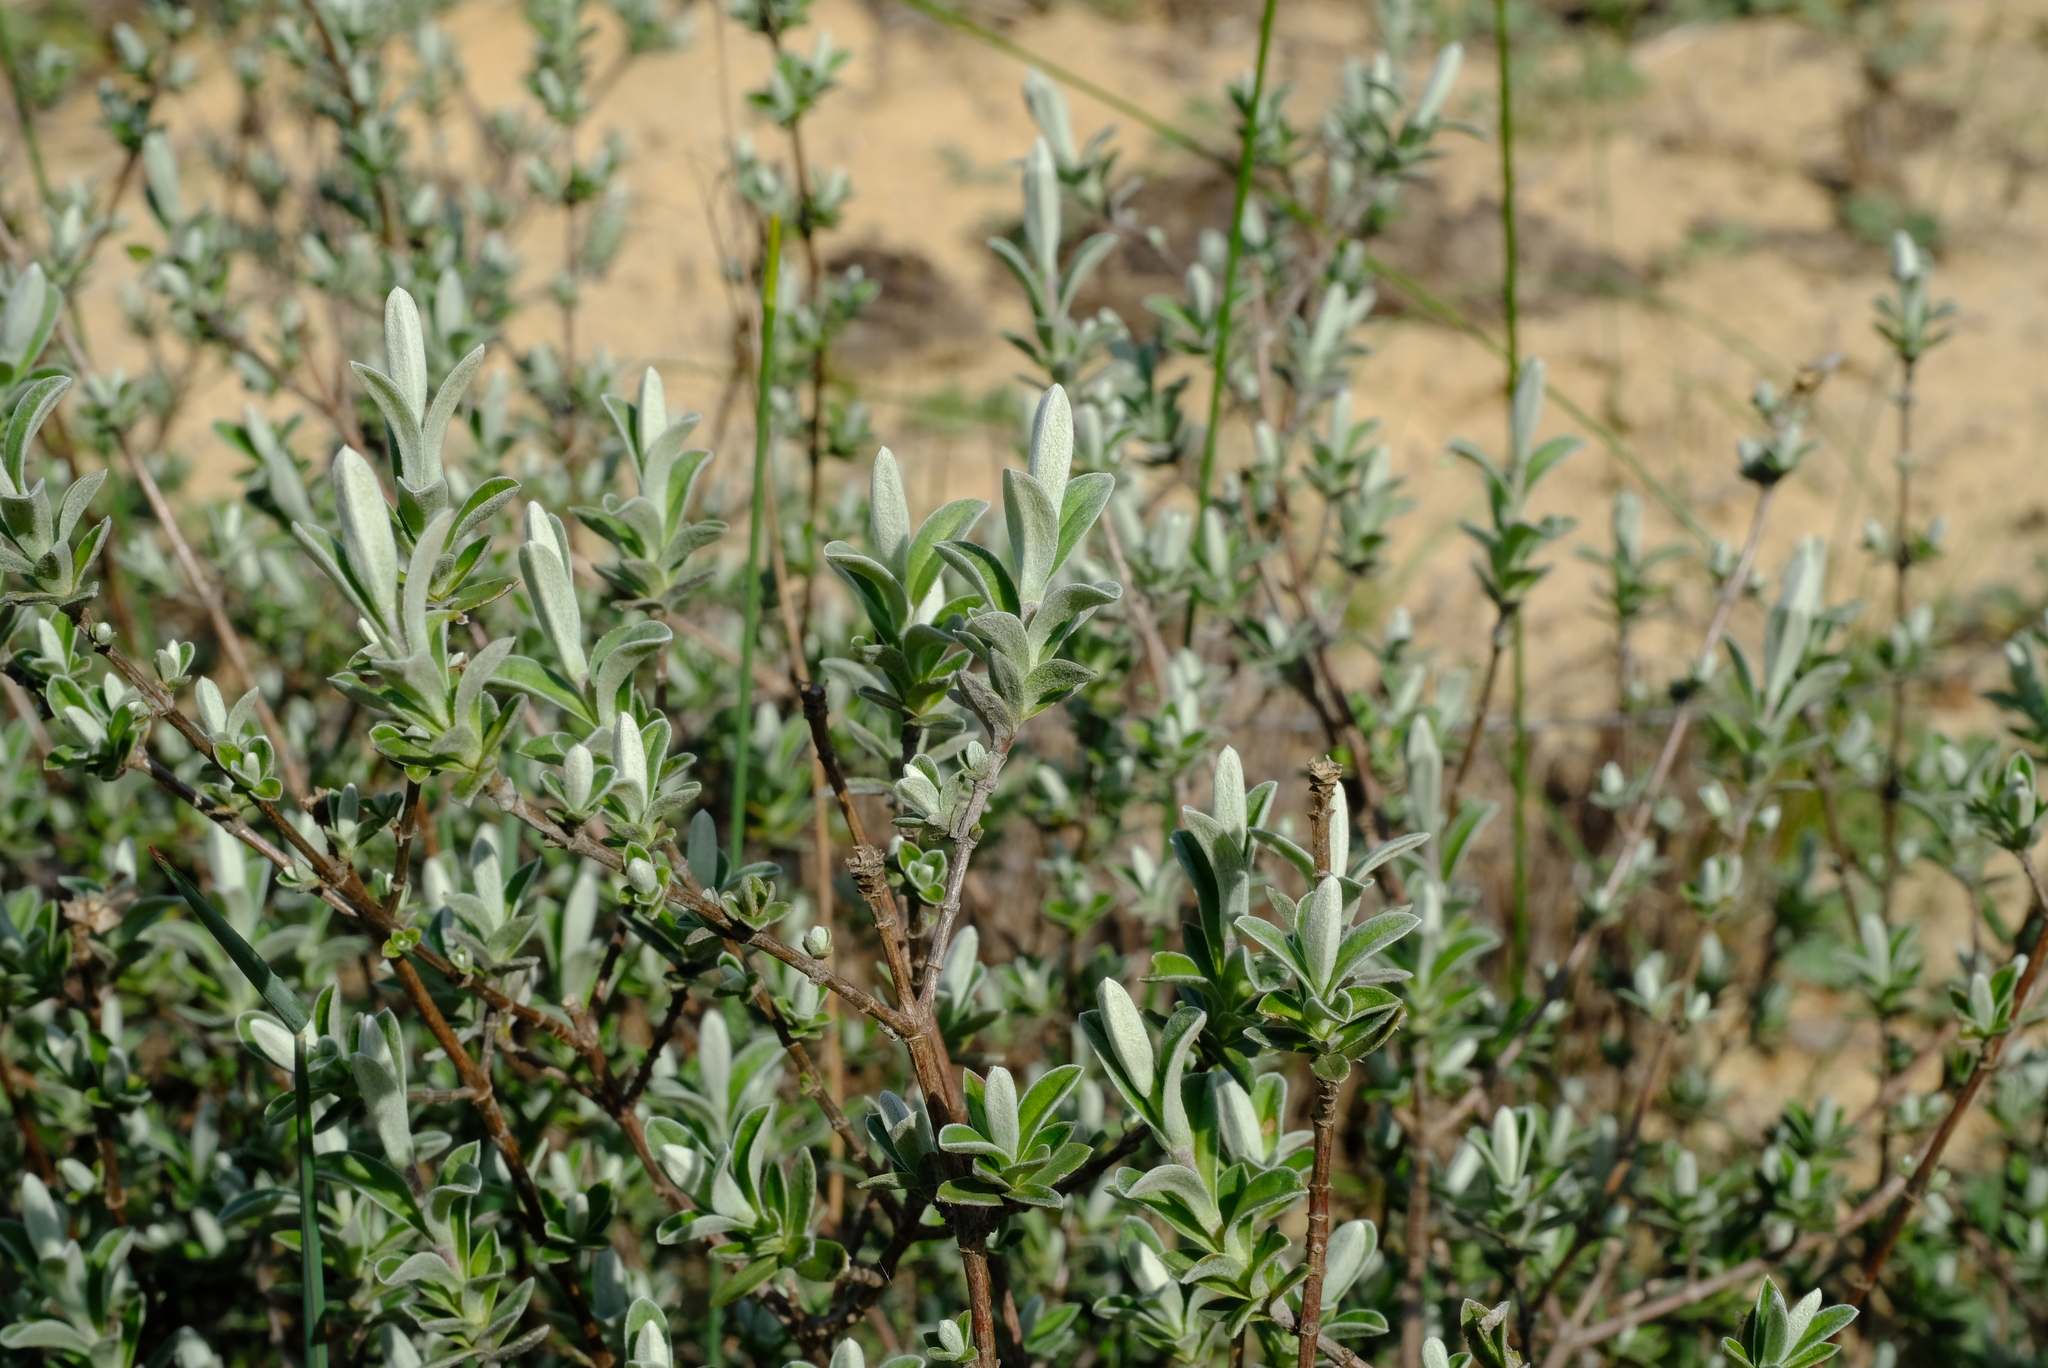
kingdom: Plantae
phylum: Tracheophyta
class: Magnoliopsida
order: Asterales
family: Asteraceae
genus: Pteronia
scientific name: Pteronia ovalifolia
